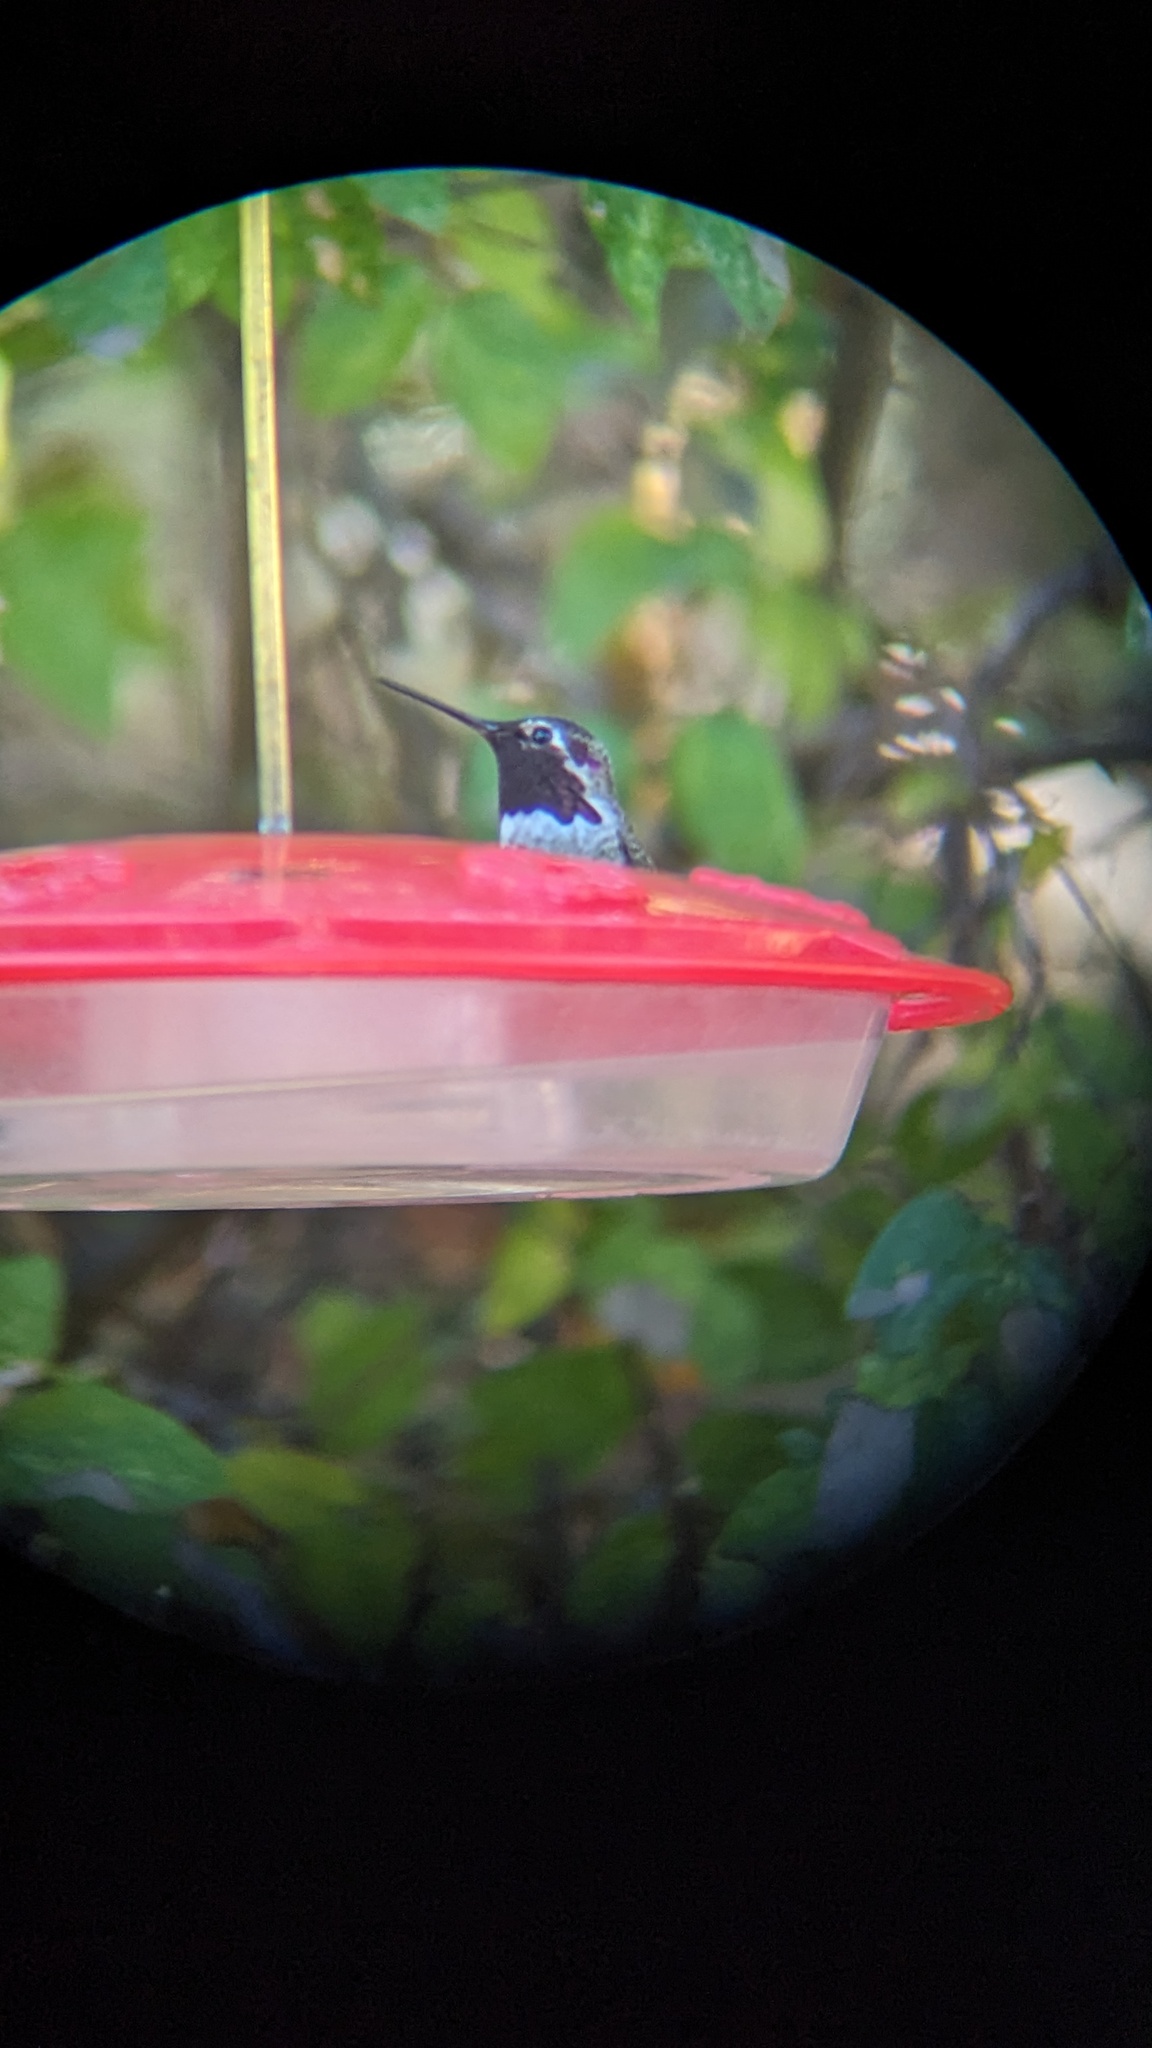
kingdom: Animalia
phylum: Chordata
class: Aves
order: Apodiformes
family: Trochilidae
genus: Calypte
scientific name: Calypte anna
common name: Anna's hummingbird
